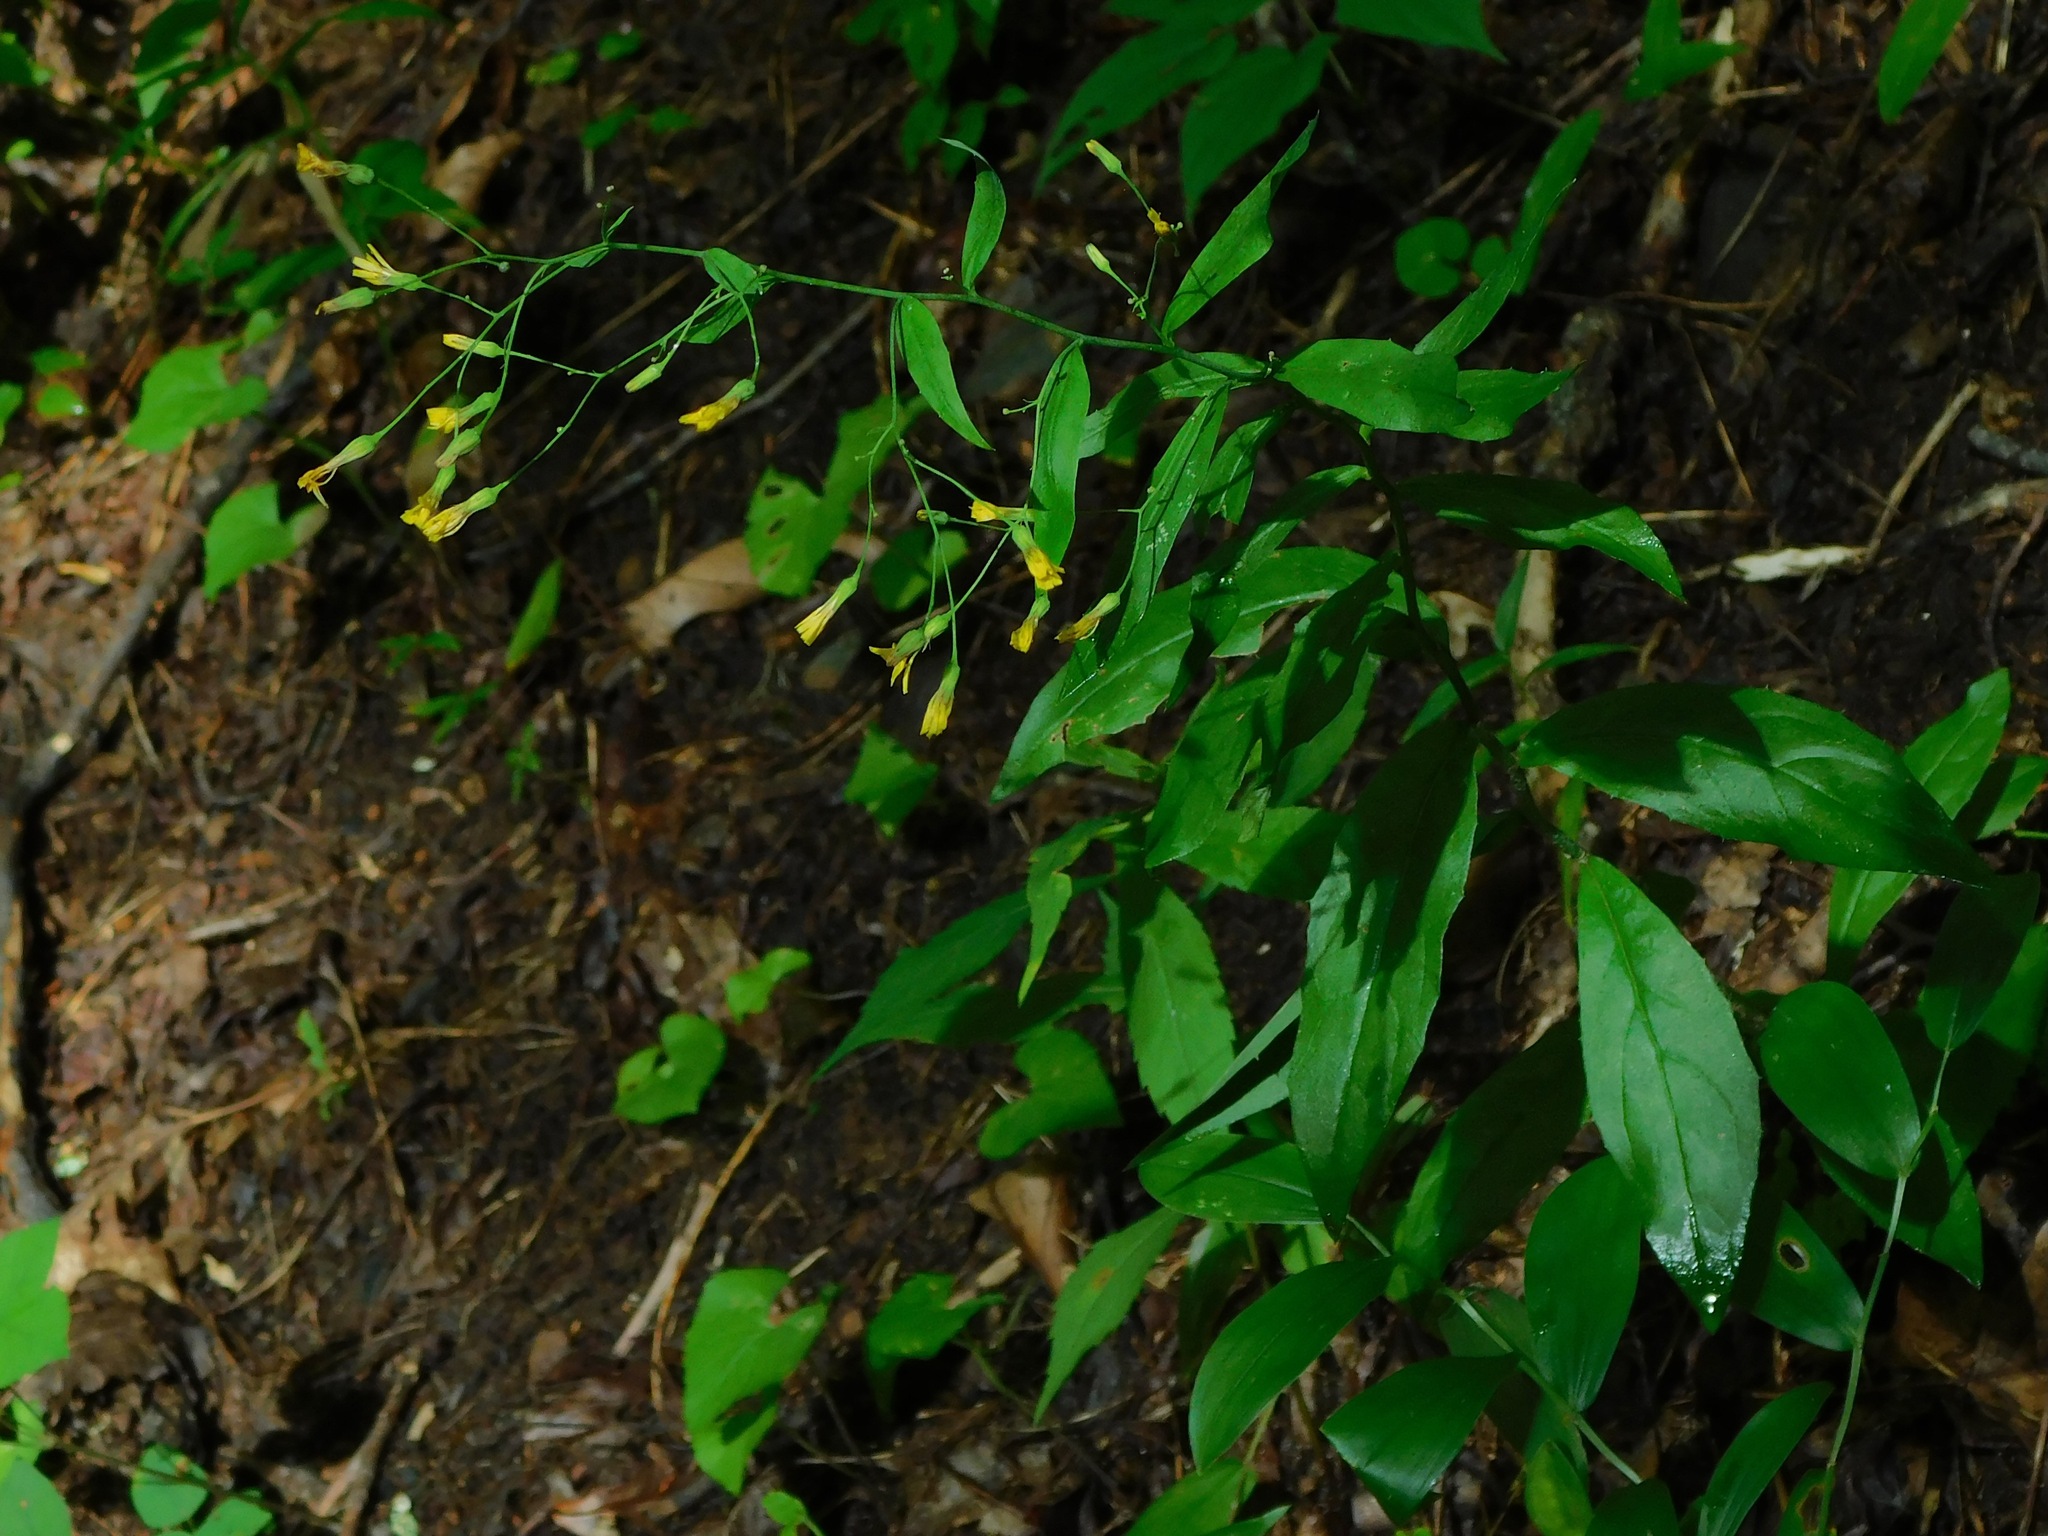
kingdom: Plantae
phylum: Tracheophyta
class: Magnoliopsida
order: Asterales
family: Asteraceae
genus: Hieracium
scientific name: Hieracium paniculatum
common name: Allegheny hawkweed
